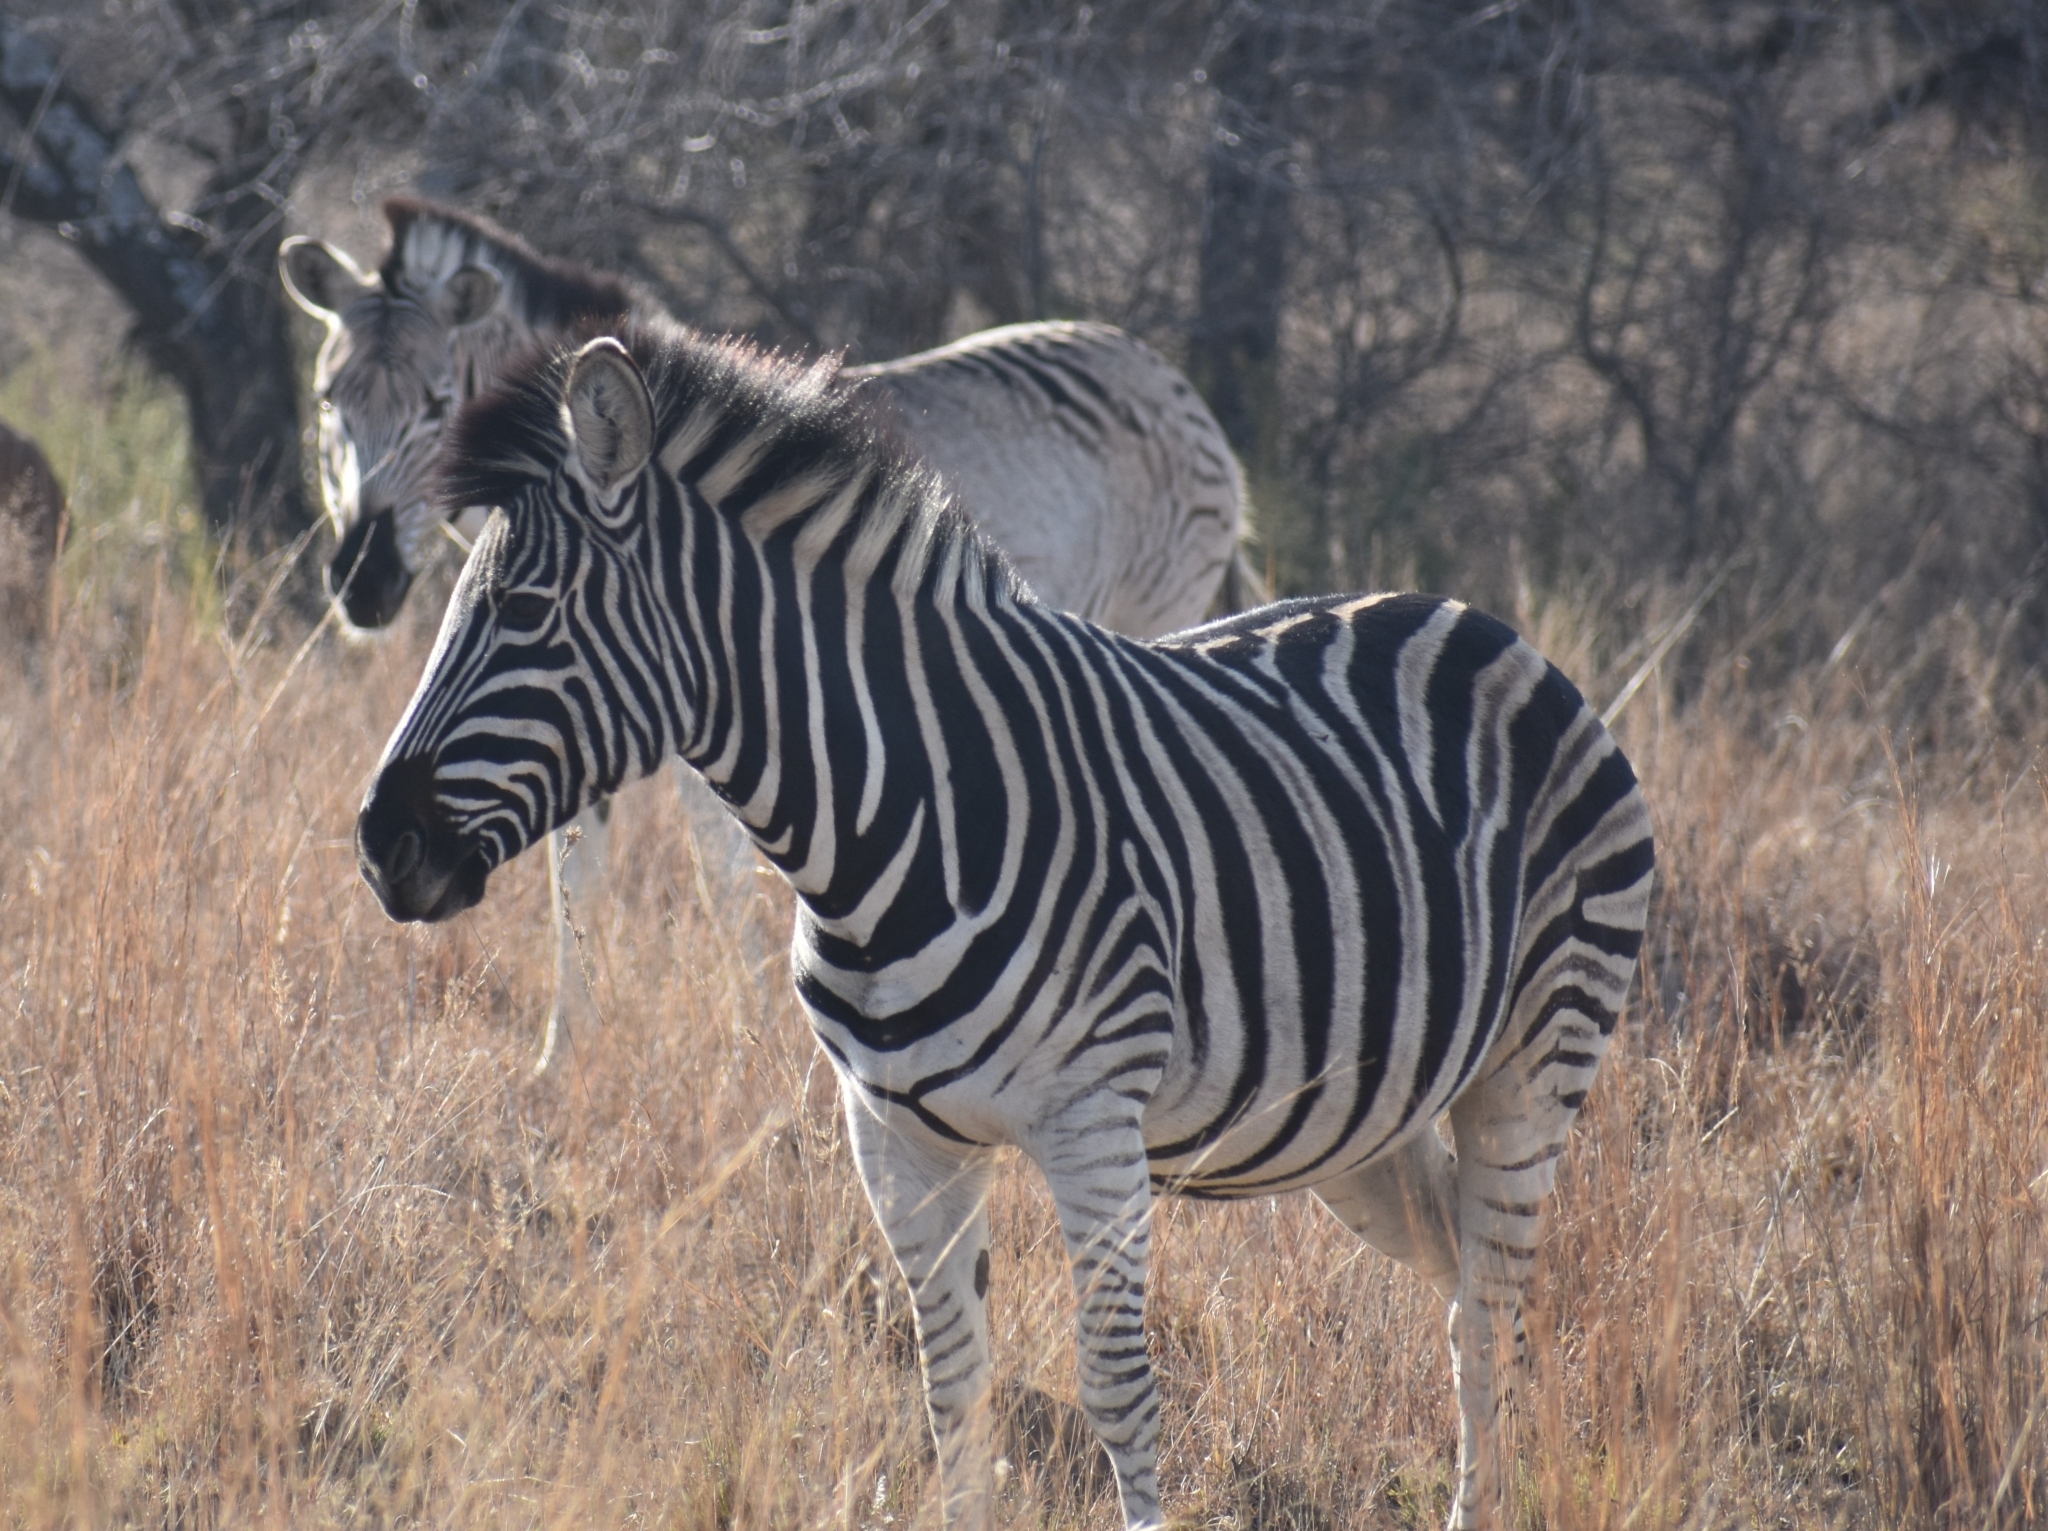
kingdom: Animalia
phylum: Chordata
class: Mammalia
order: Perissodactyla
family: Equidae
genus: Equus
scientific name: Equus quagga
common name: Plains zebra
